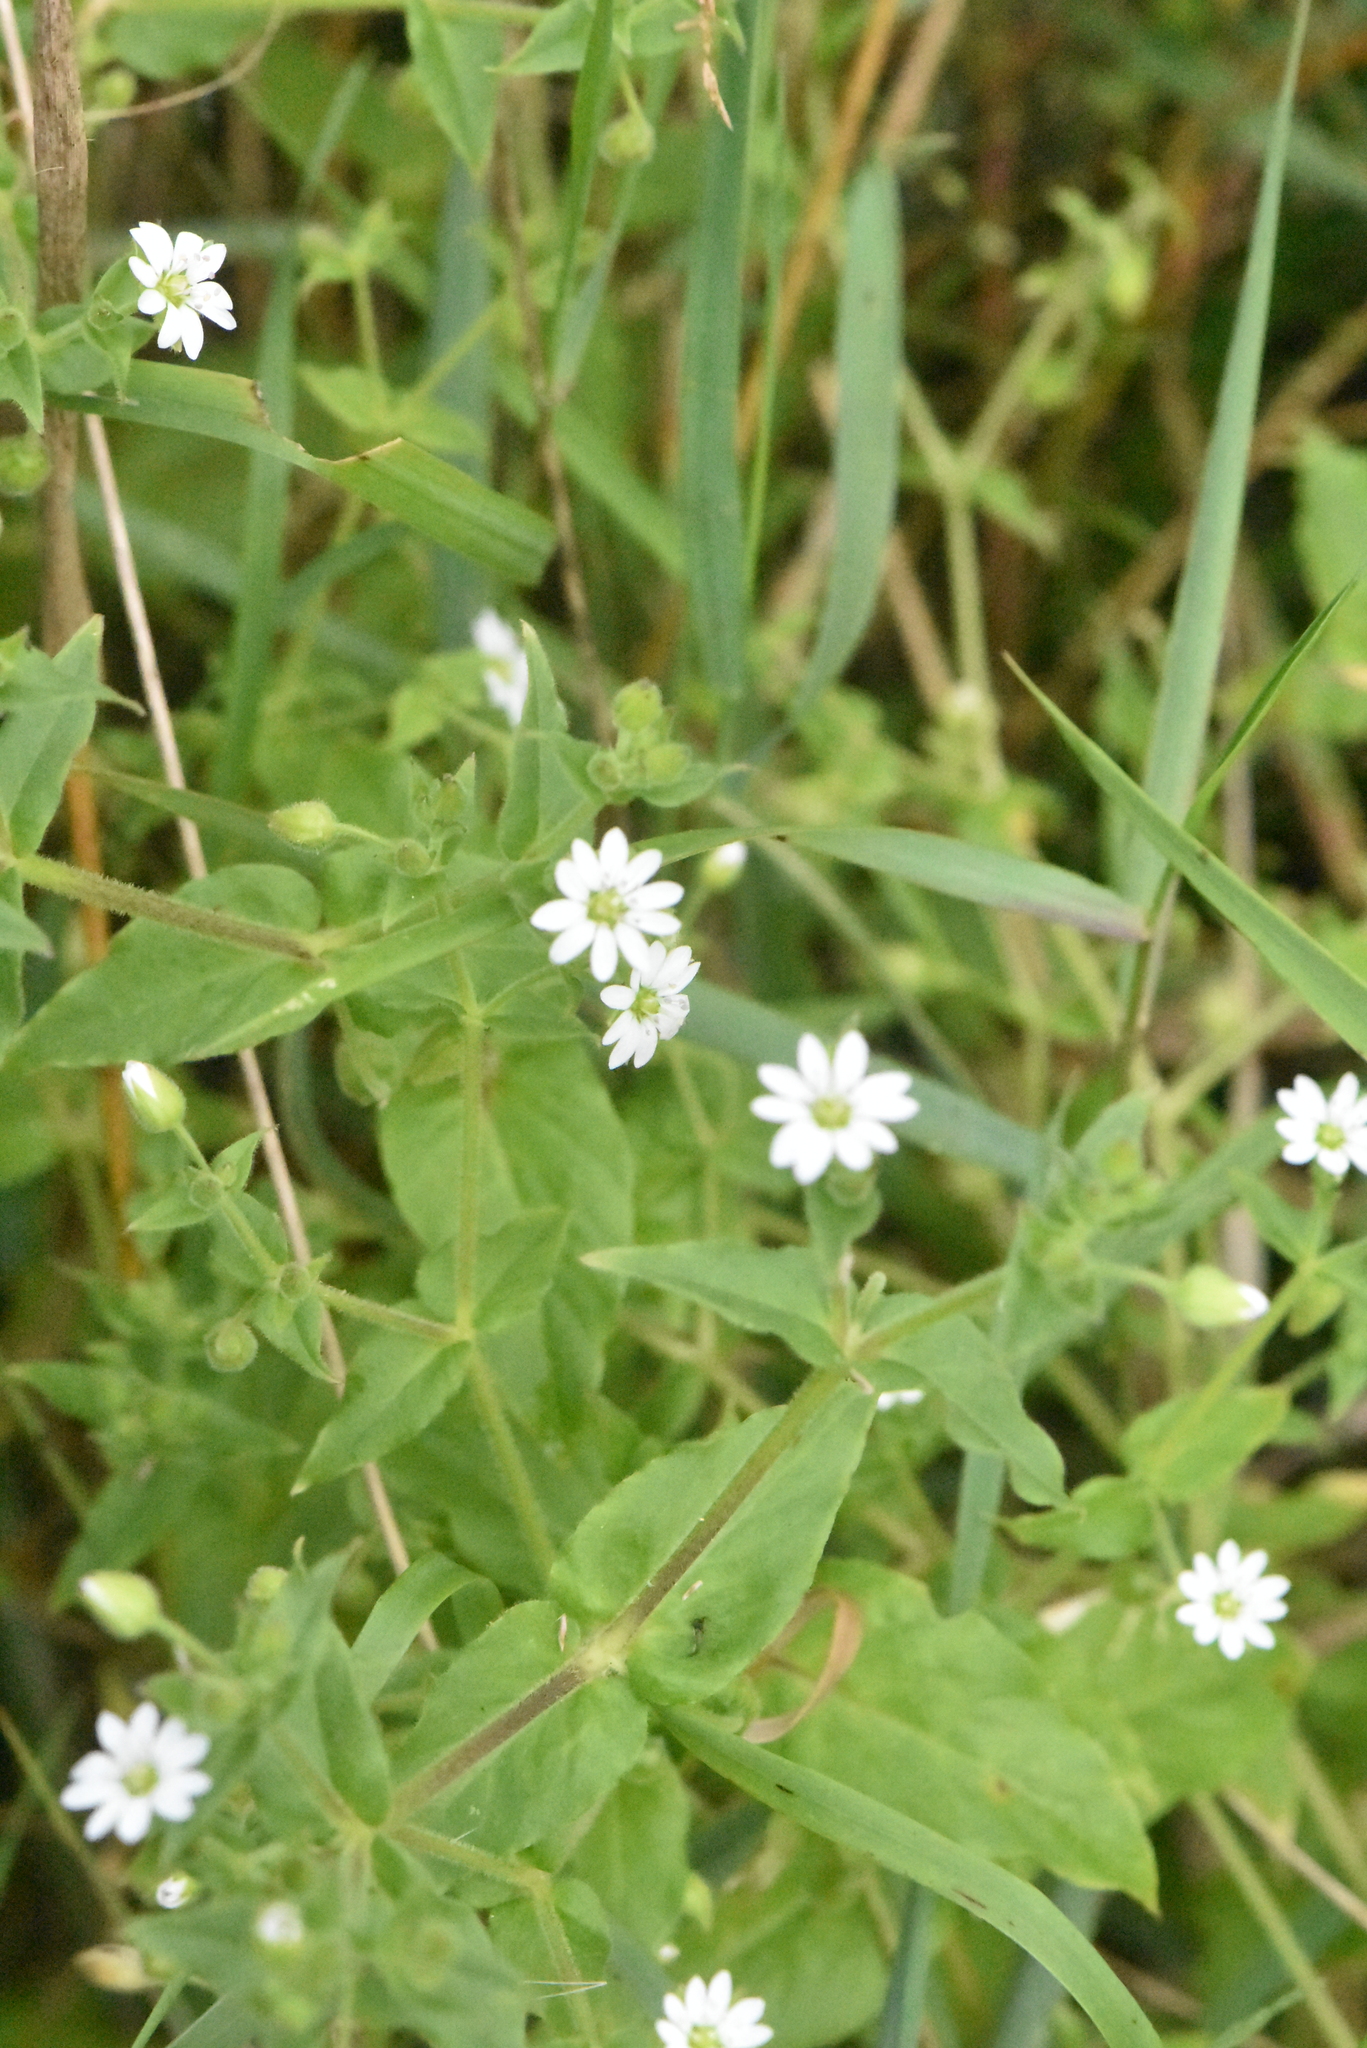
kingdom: Plantae
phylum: Tracheophyta
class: Magnoliopsida
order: Caryophyllales
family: Caryophyllaceae
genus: Stellaria
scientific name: Stellaria aquatica
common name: Water chickweed
